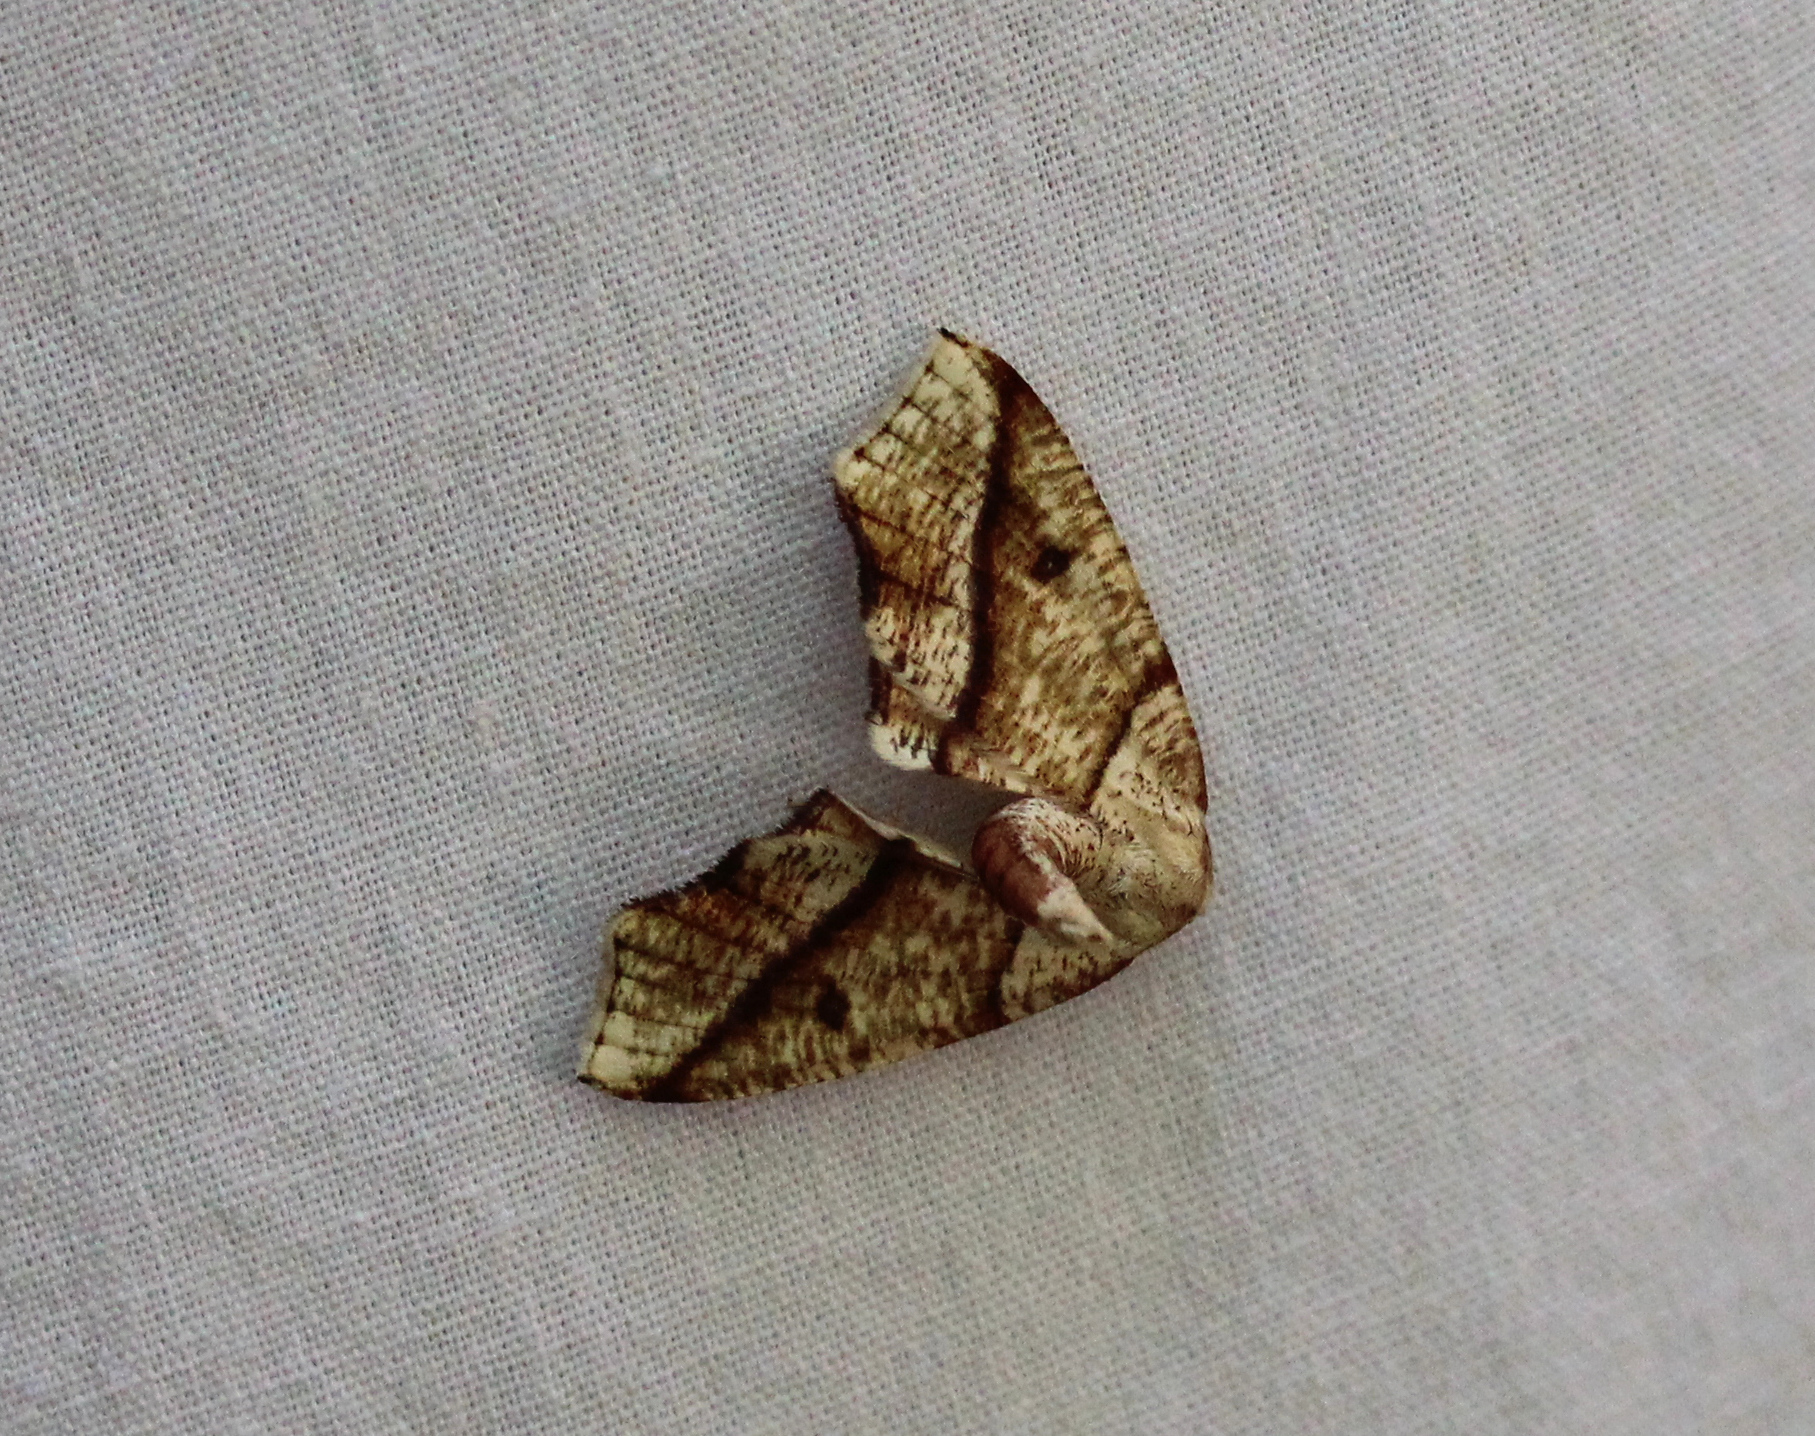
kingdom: Animalia
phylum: Arthropoda
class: Insecta
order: Lepidoptera
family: Geometridae
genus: Plagodis
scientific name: Plagodis alcoolaria
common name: Hollow-spotted plagodis
